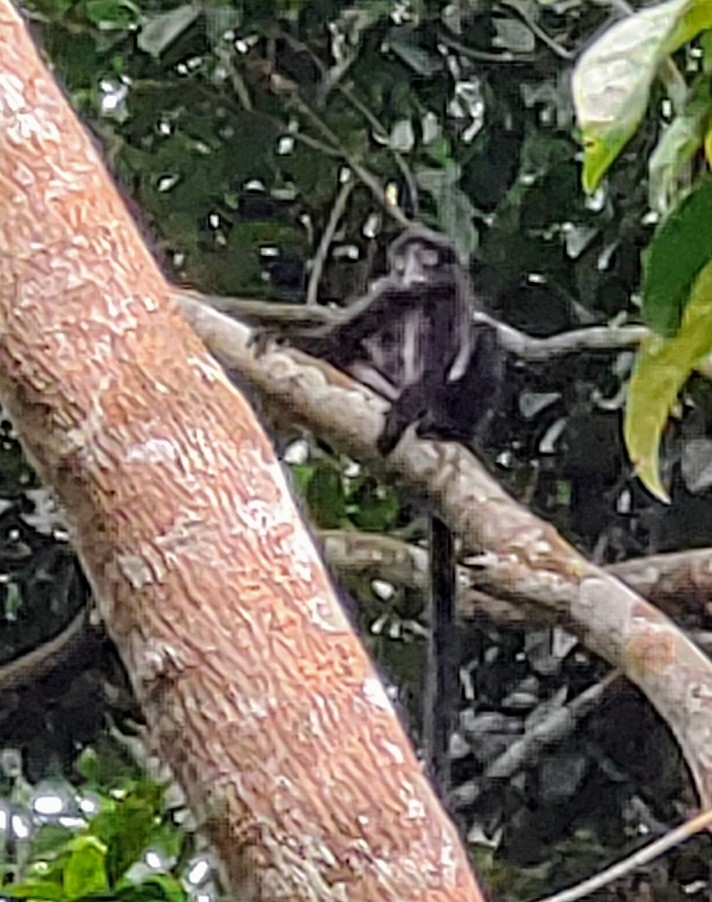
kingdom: Animalia
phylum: Chordata
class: Mammalia
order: Primates
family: Cercopithecidae
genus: Presbytis
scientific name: Presbytis femoralis
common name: Banded surili
